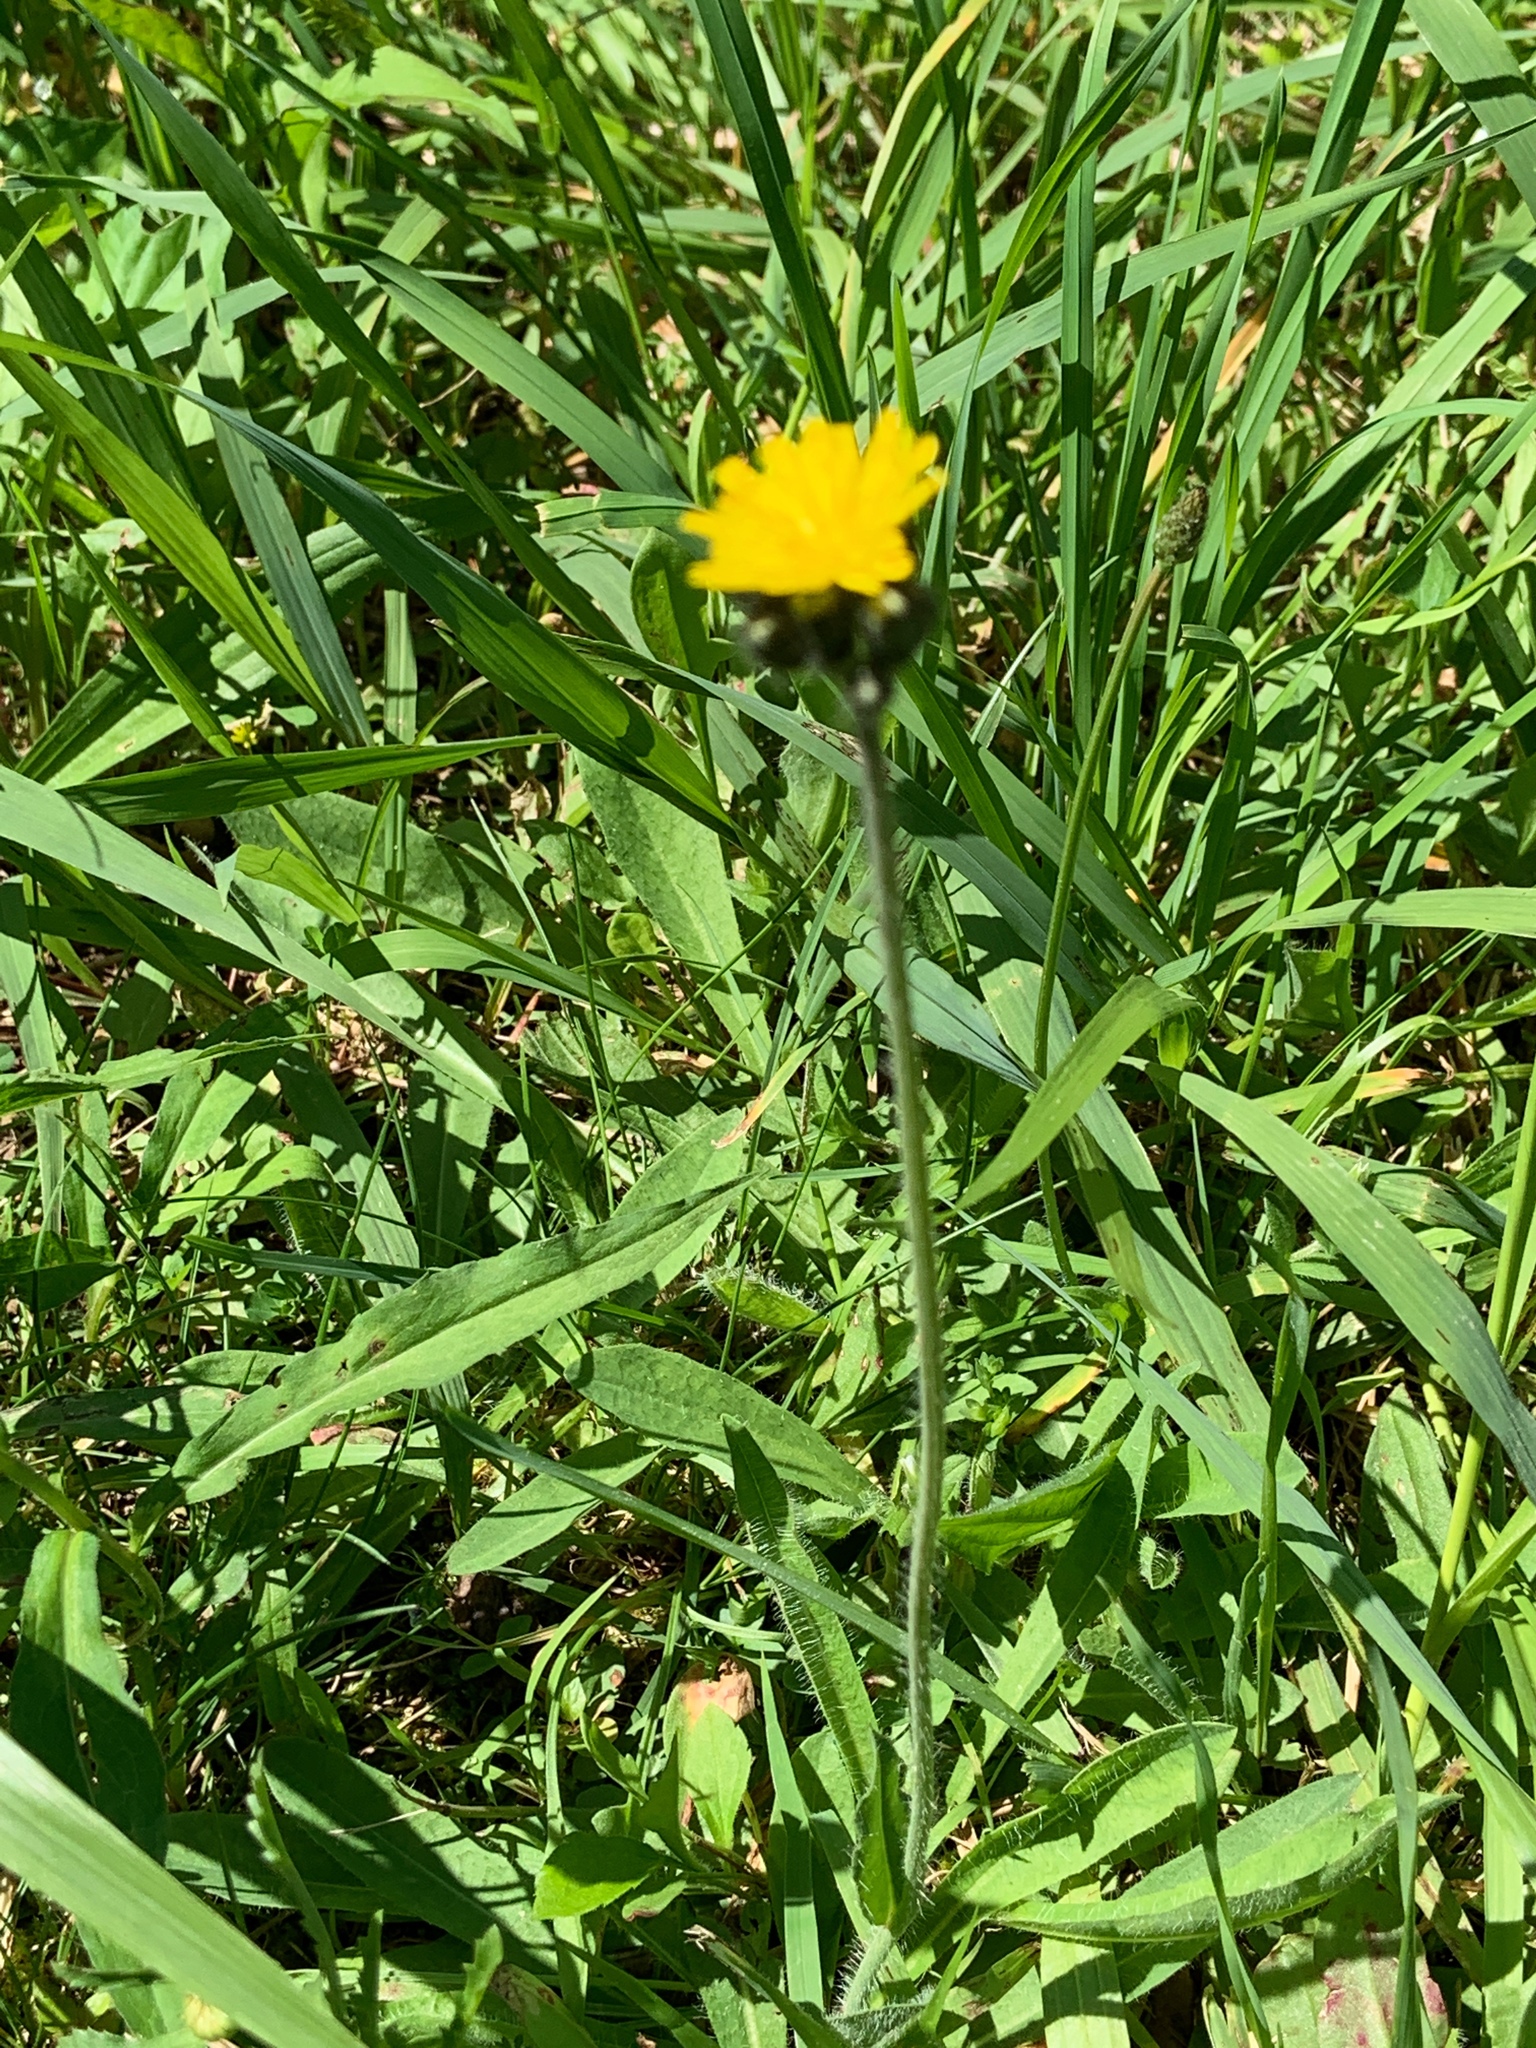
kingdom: Plantae
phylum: Tracheophyta
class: Magnoliopsida
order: Asterales
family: Asteraceae
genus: Pilosella
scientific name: Pilosella caespitosa
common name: Yellow fox-and-cubs
